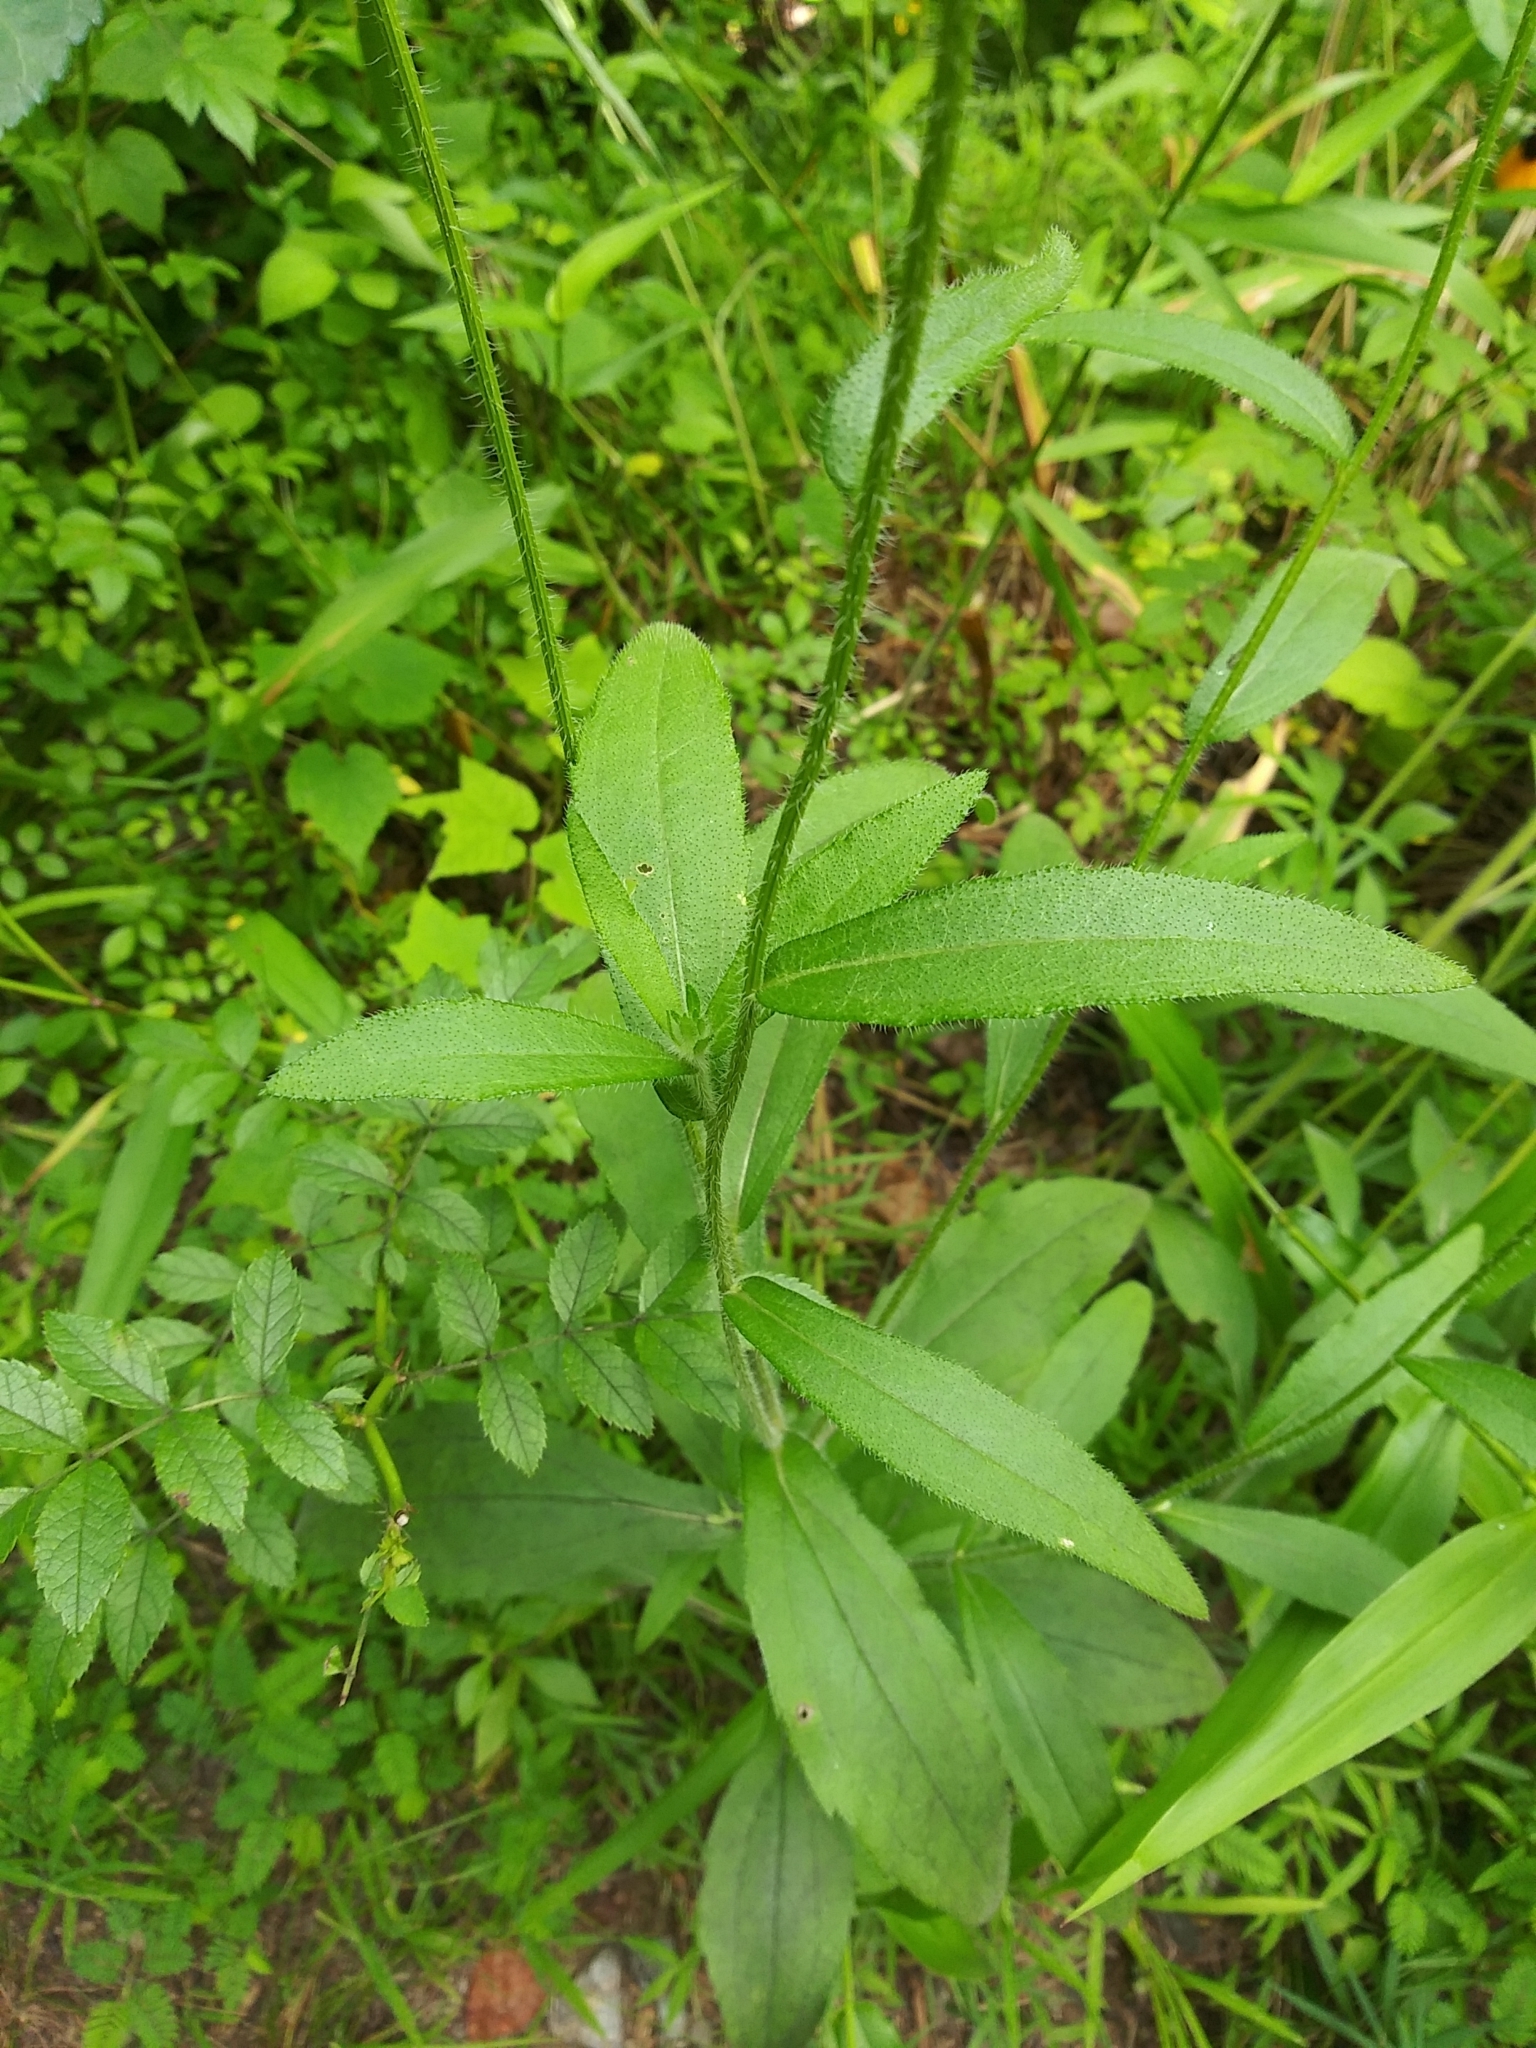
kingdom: Plantae
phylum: Tracheophyta
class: Magnoliopsida
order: Asterales
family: Asteraceae
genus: Rudbeckia
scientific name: Rudbeckia hirta
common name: Black-eyed-susan
